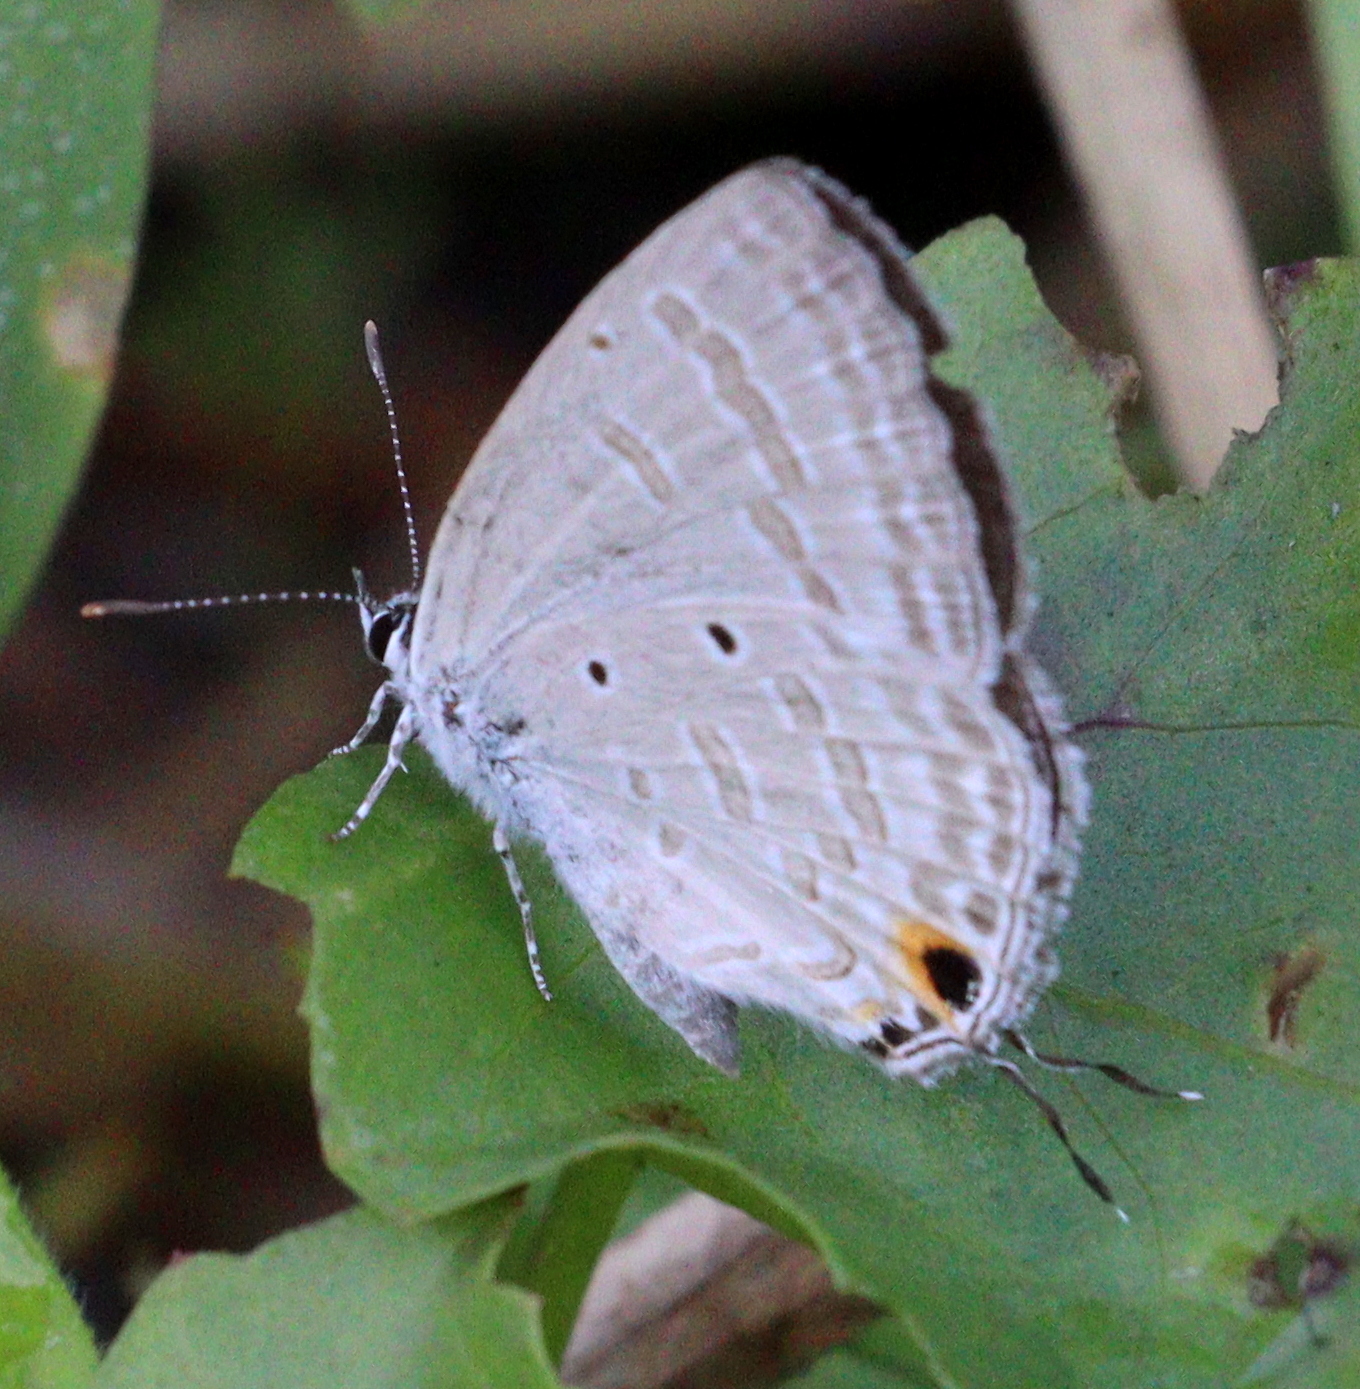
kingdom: Animalia
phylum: Arthropoda
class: Insecta
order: Lepidoptera
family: Lycaenidae
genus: Catochrysops
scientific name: Catochrysops strabo
